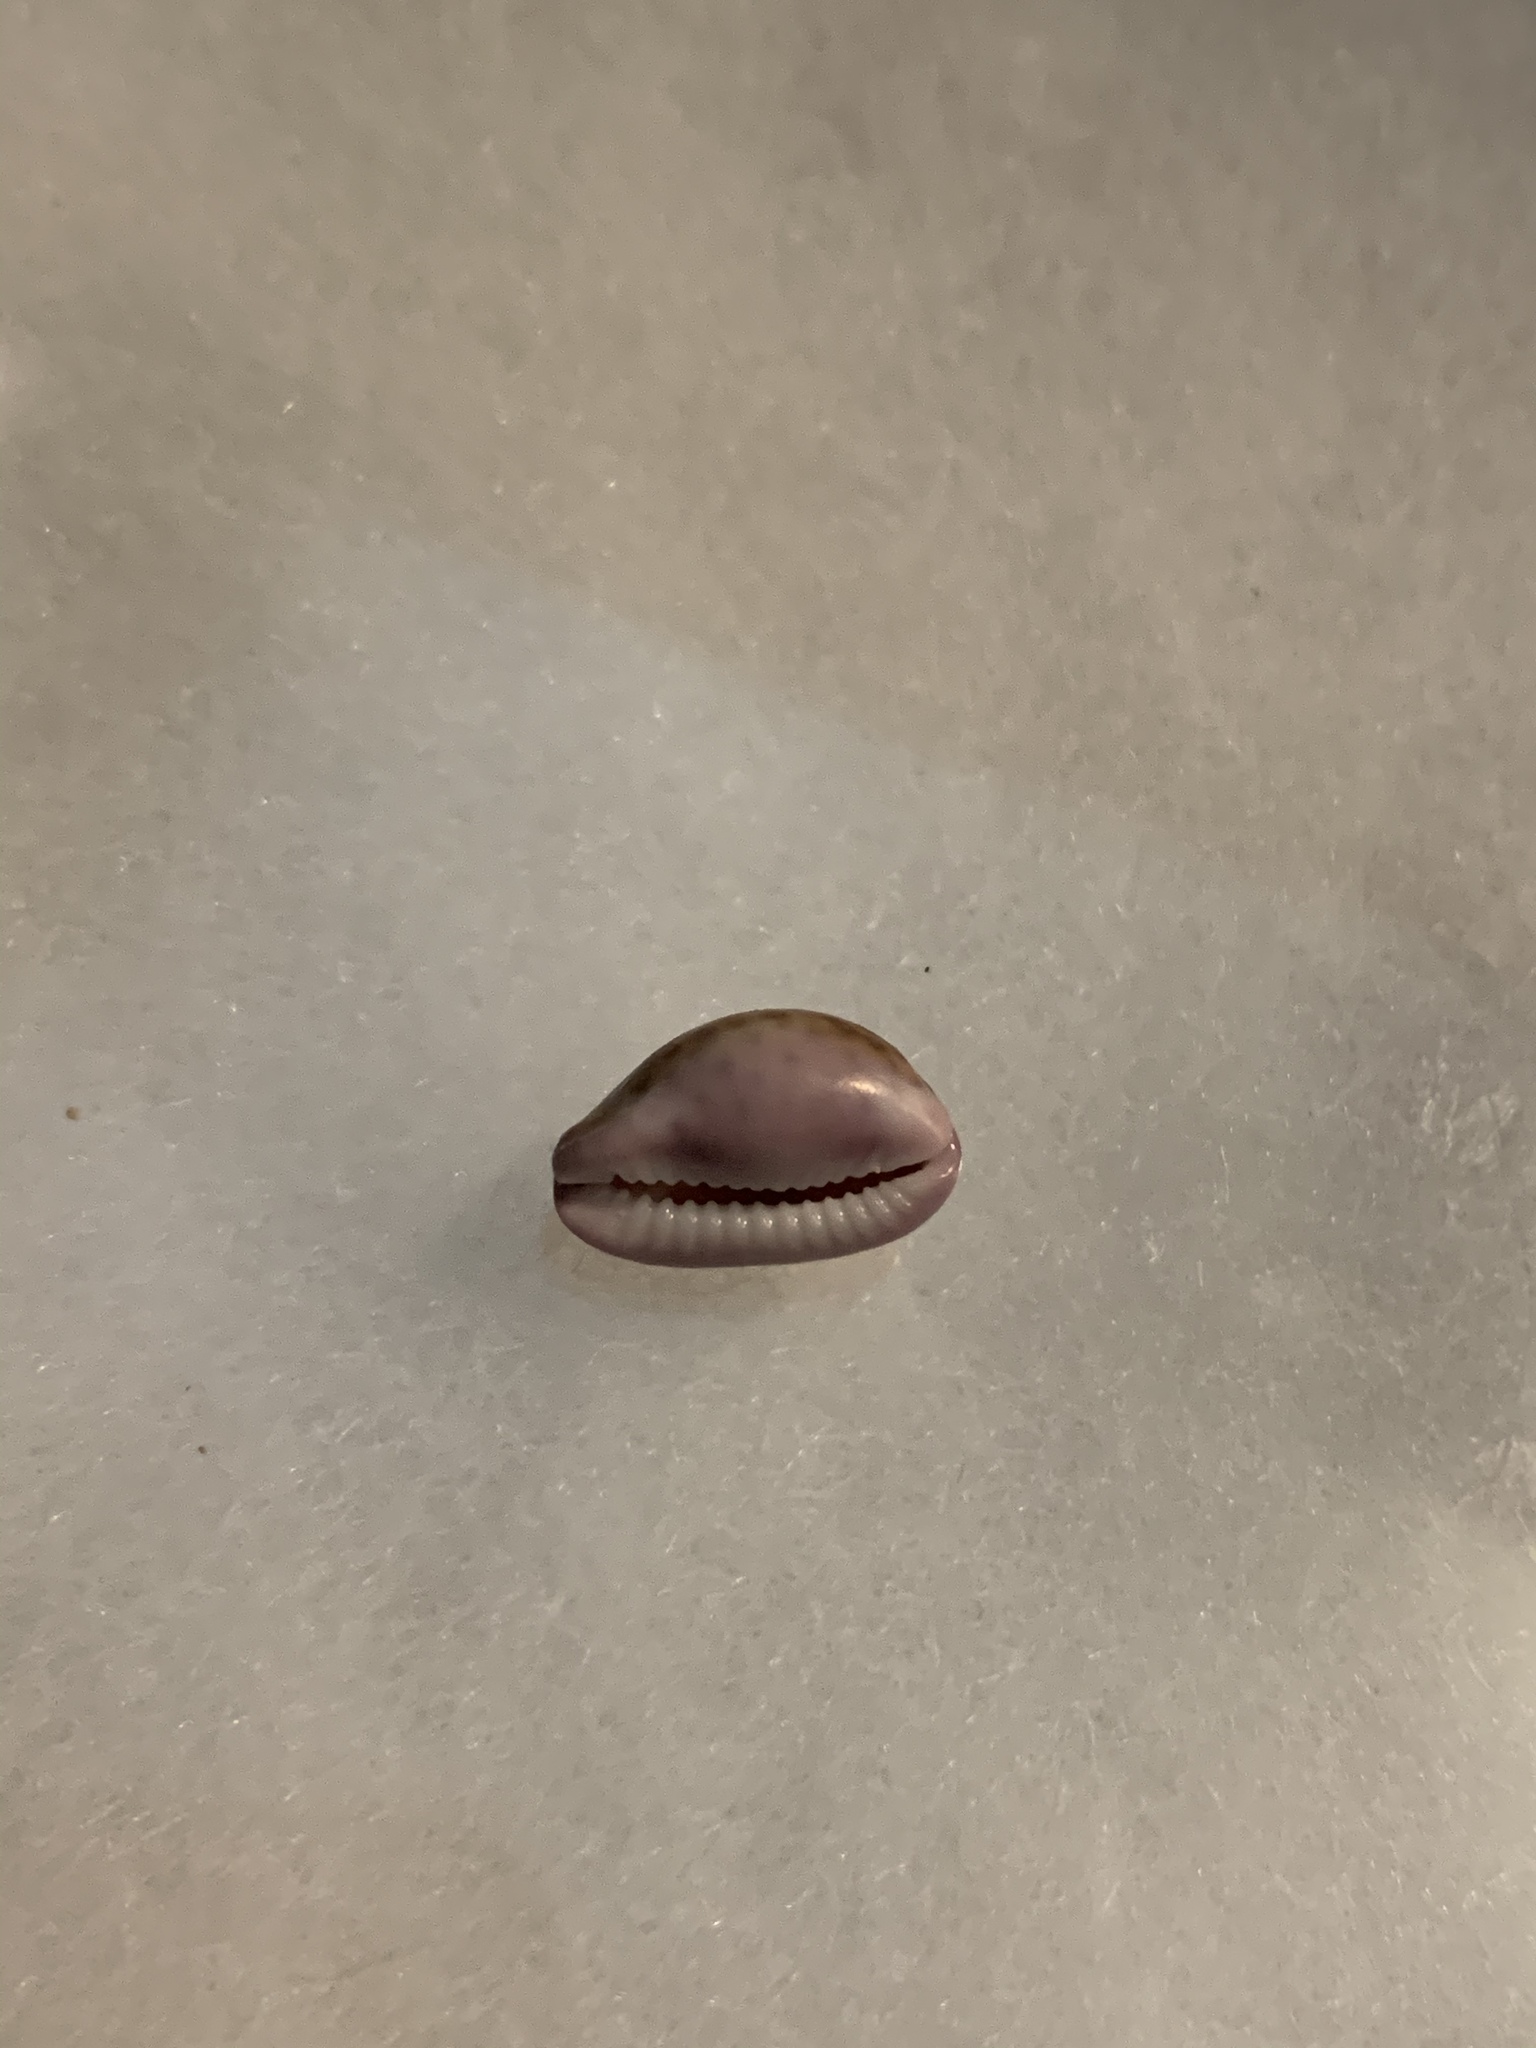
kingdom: Animalia
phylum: Mollusca
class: Gastropoda
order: Littorinimorpha
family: Cypraeidae
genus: Naria
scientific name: Naria poraria
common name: Cowrie
